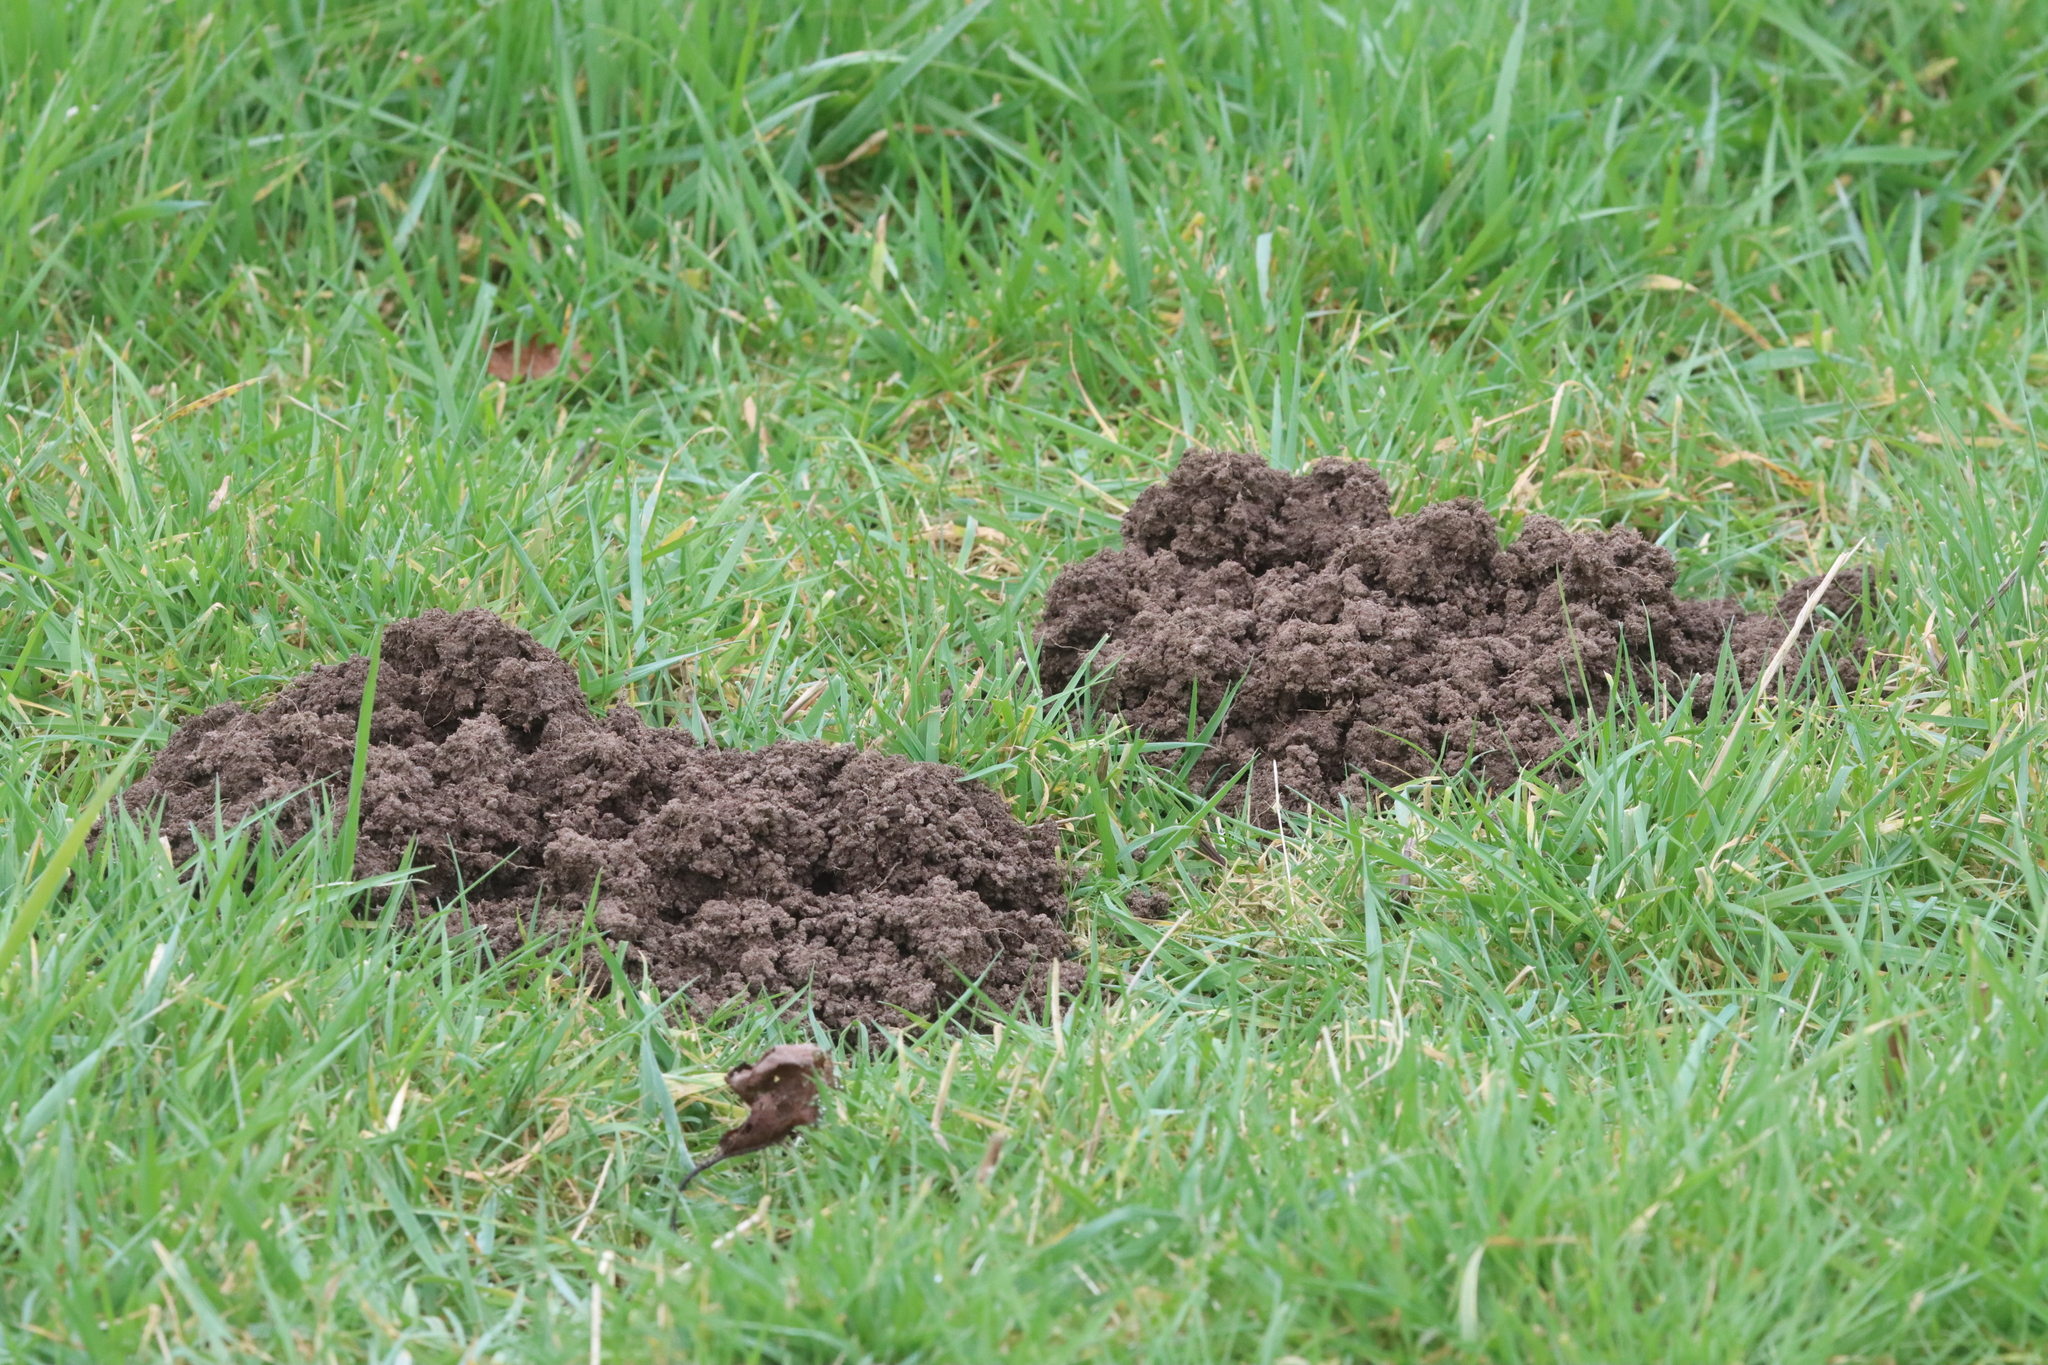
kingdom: Animalia
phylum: Chordata
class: Mammalia
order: Soricomorpha
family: Talpidae
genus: Talpa
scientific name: Talpa europaea
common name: European mole
